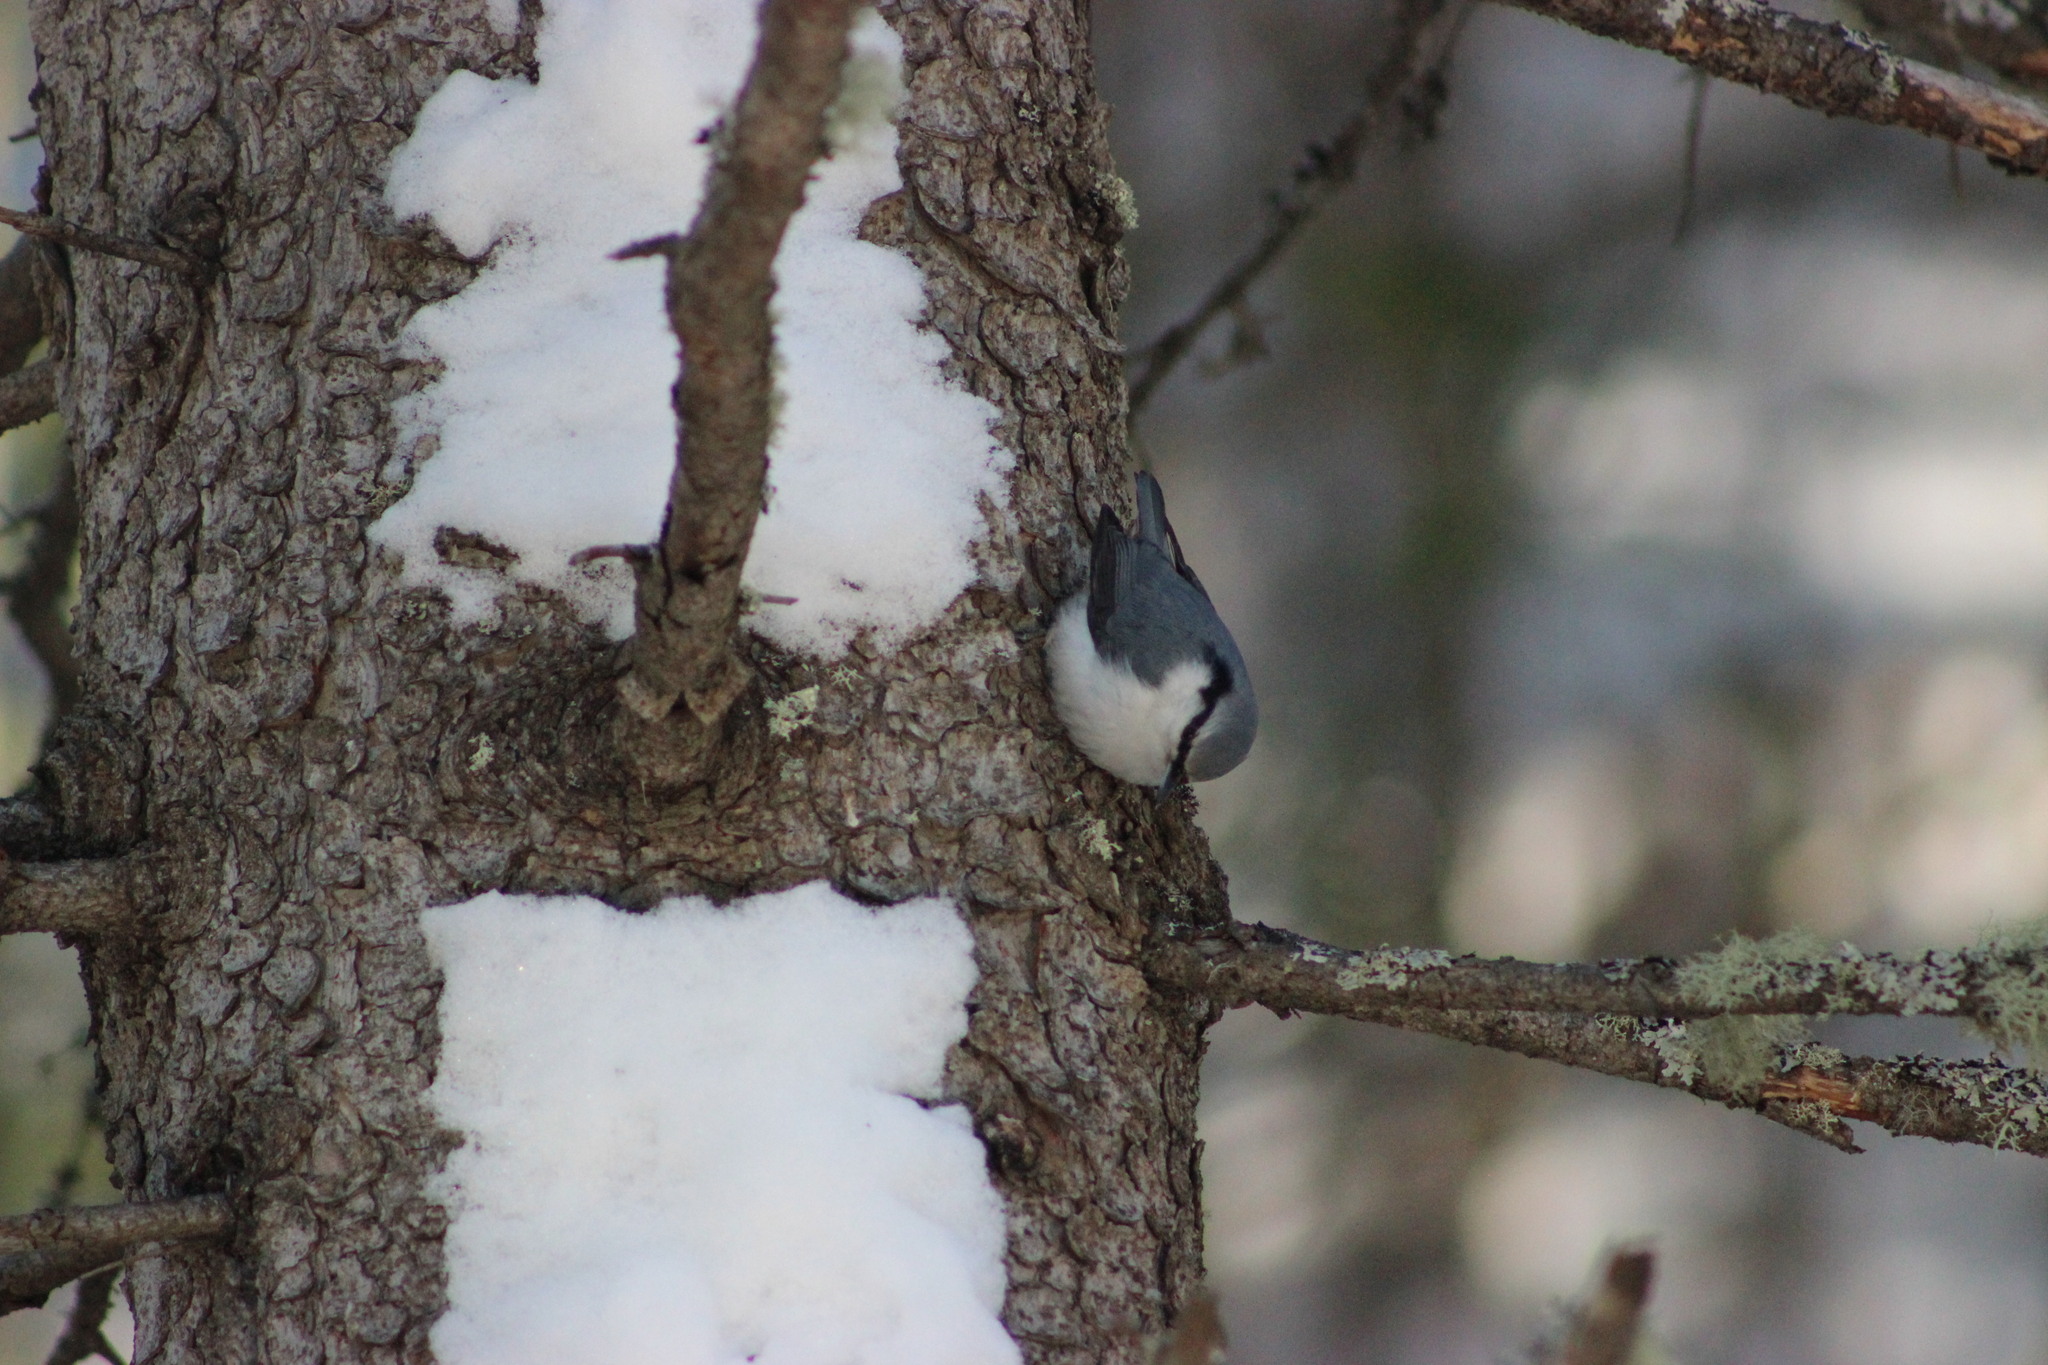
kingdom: Animalia
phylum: Chordata
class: Aves
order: Passeriformes
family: Sittidae
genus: Sitta
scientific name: Sitta europaea
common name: Eurasian nuthatch
